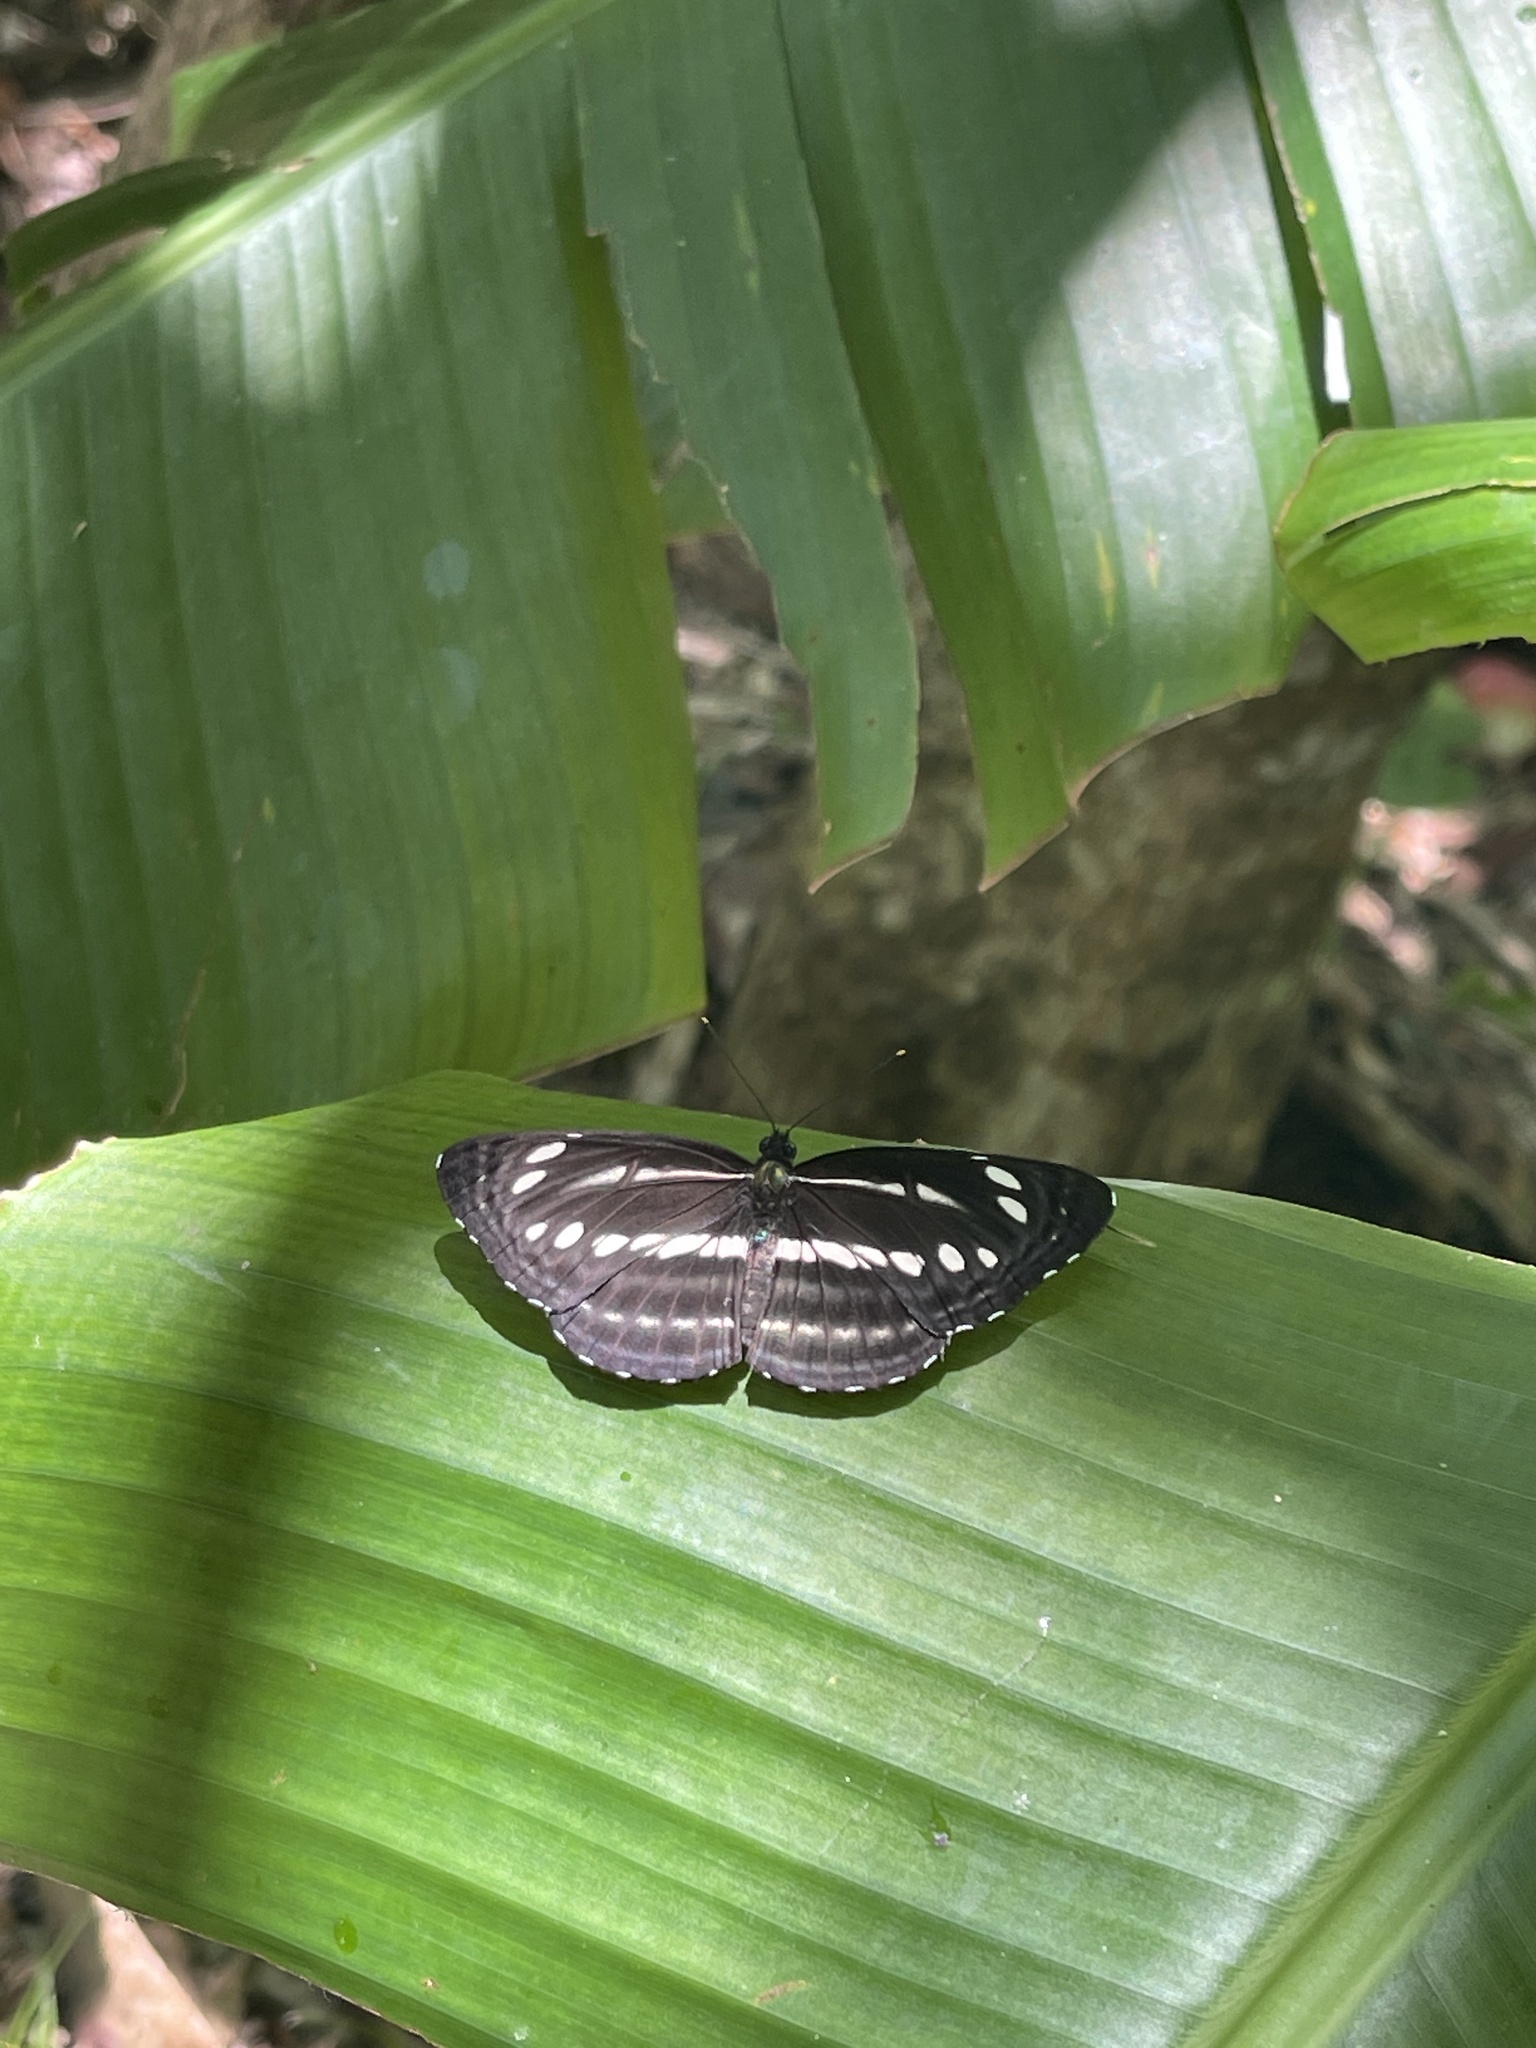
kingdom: Animalia
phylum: Arthropoda
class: Insecta
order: Lepidoptera
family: Nymphalidae
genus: Neptis
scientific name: Neptis nata
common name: Sullied brown sailer
